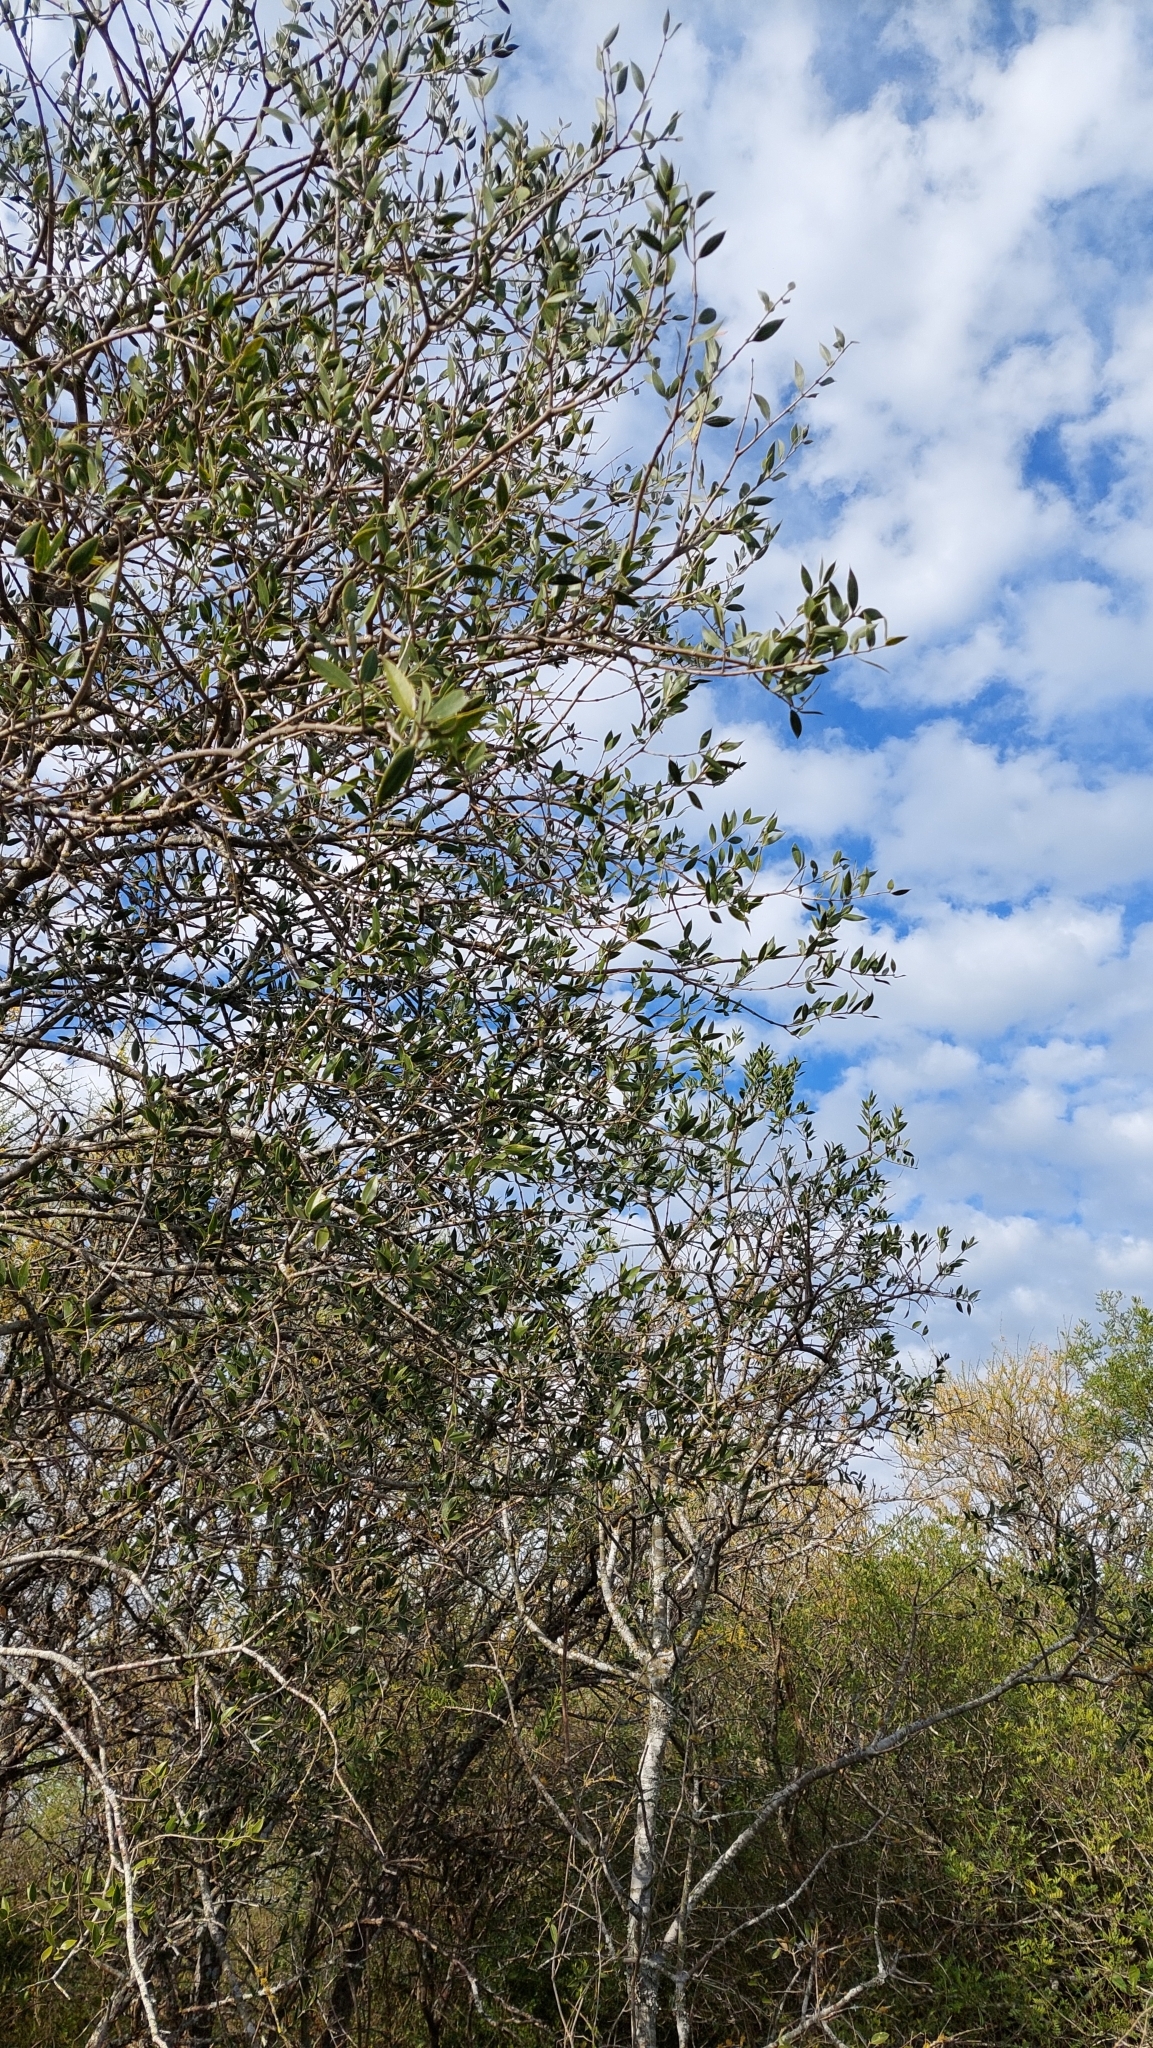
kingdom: Plantae
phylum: Tracheophyta
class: Magnoliopsida
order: Gentianales
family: Apocynaceae
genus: Aspidosperma
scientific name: Aspidosperma quebracho-blanco
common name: White quebracho
